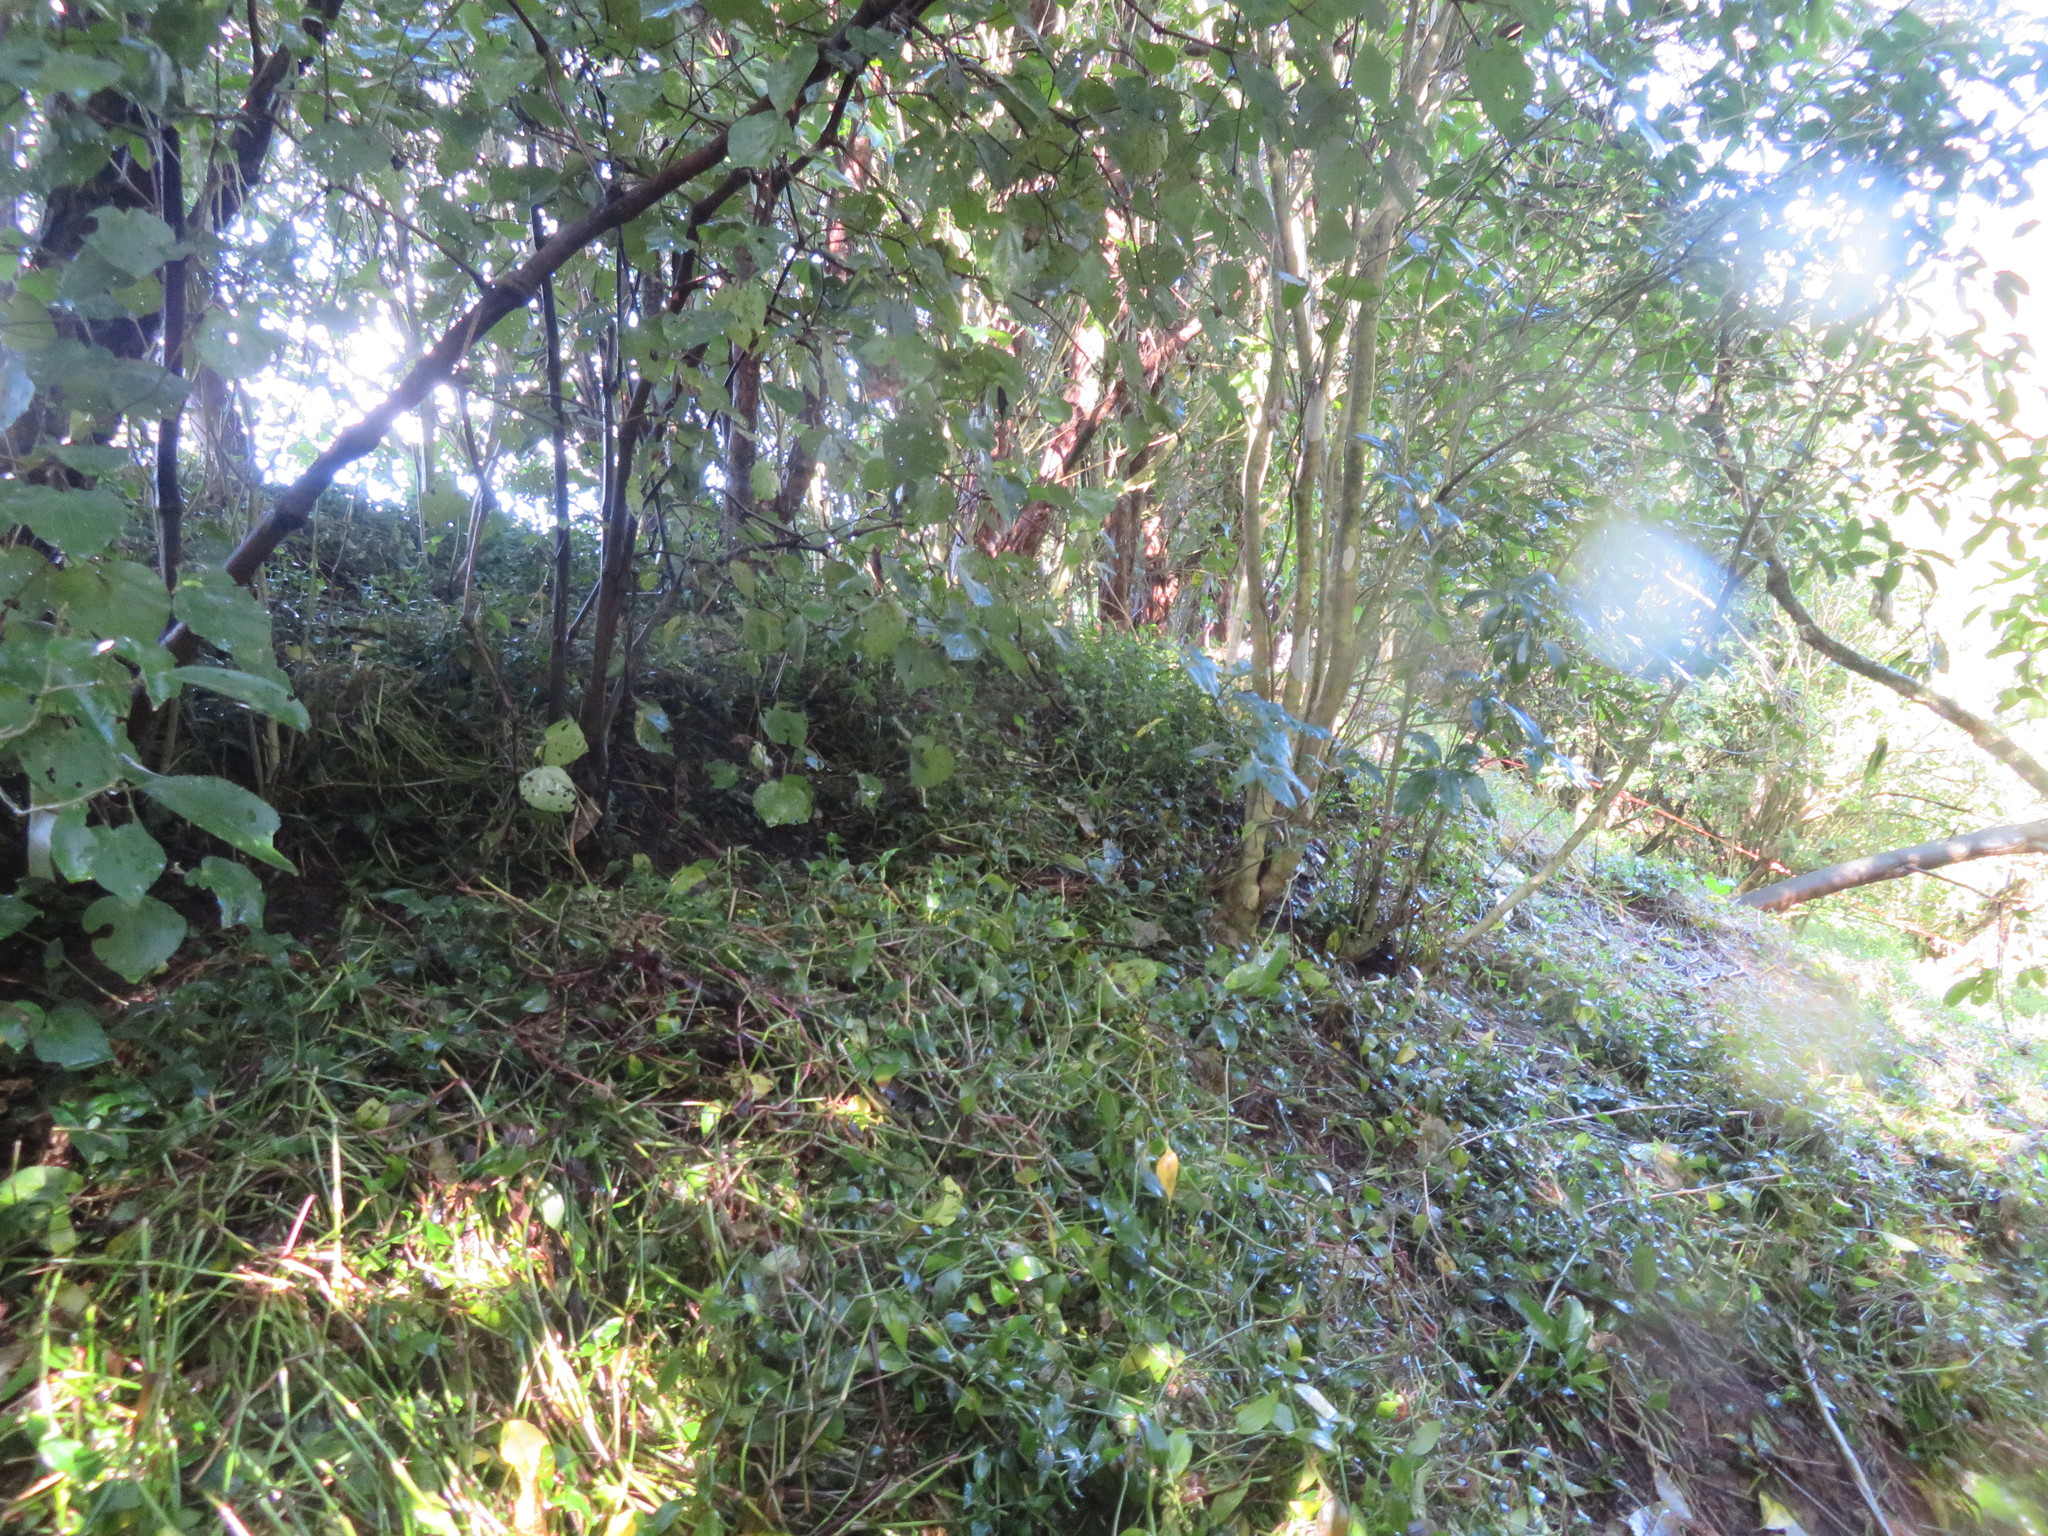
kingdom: Plantae
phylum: Tracheophyta
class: Magnoliopsida
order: Piperales
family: Piperaceae
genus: Macropiper
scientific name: Macropiper excelsum
